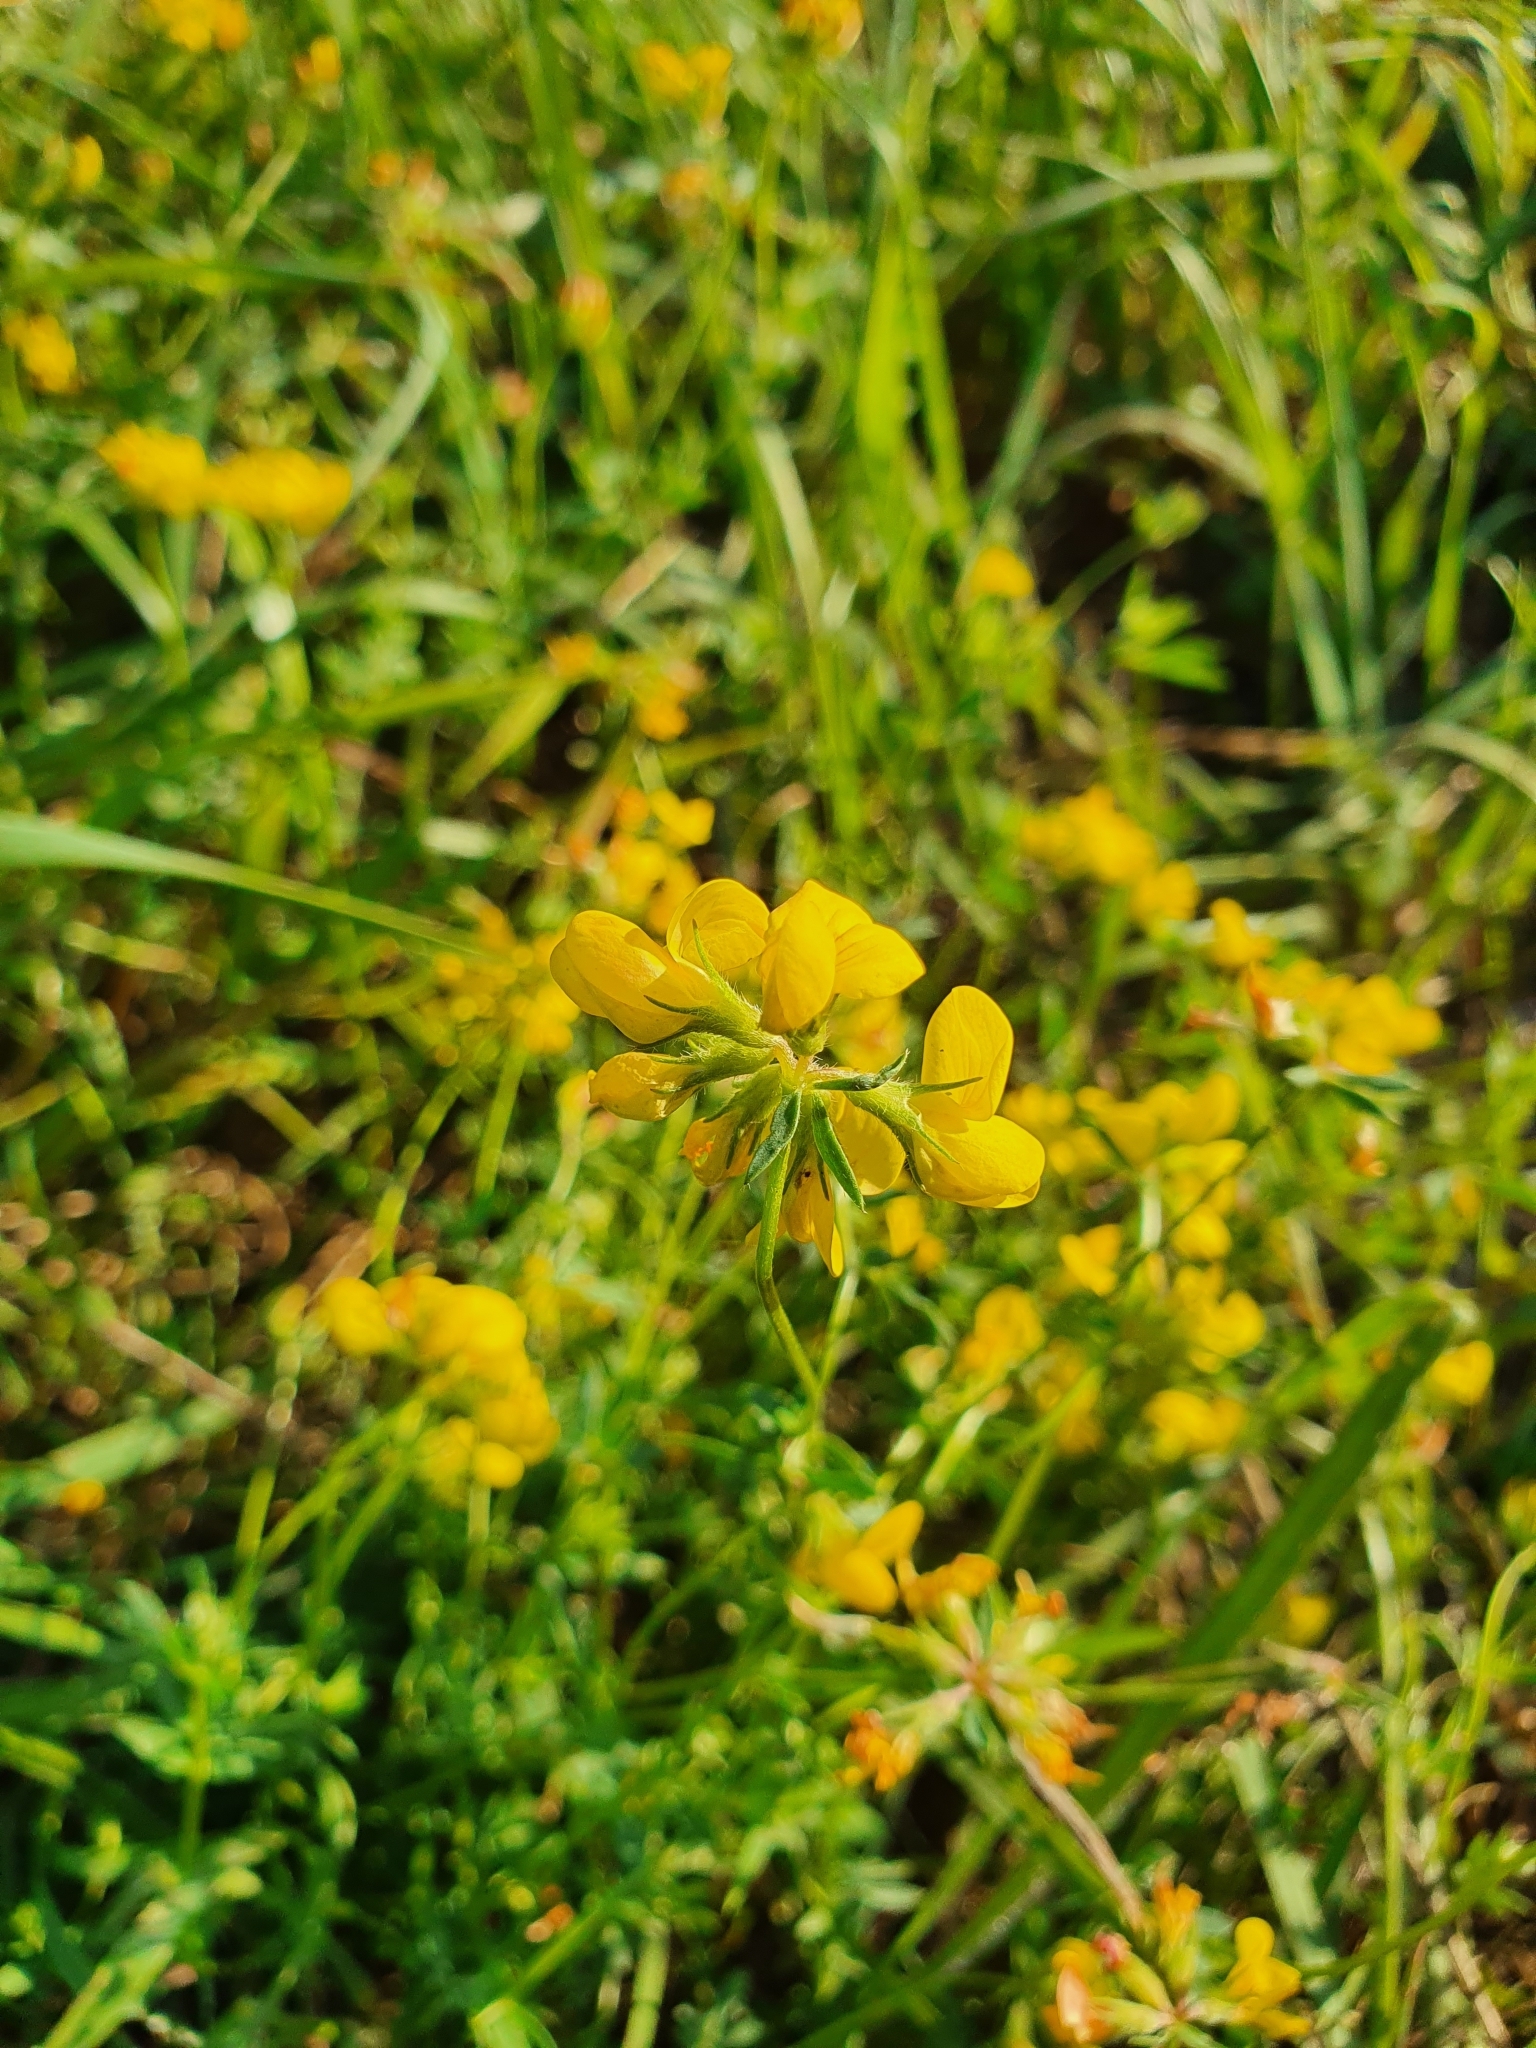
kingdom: Plantae
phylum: Tracheophyta
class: Magnoliopsida
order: Fabales
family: Fabaceae
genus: Lotus
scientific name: Lotus corniculatus
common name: Common bird's-foot-trefoil
